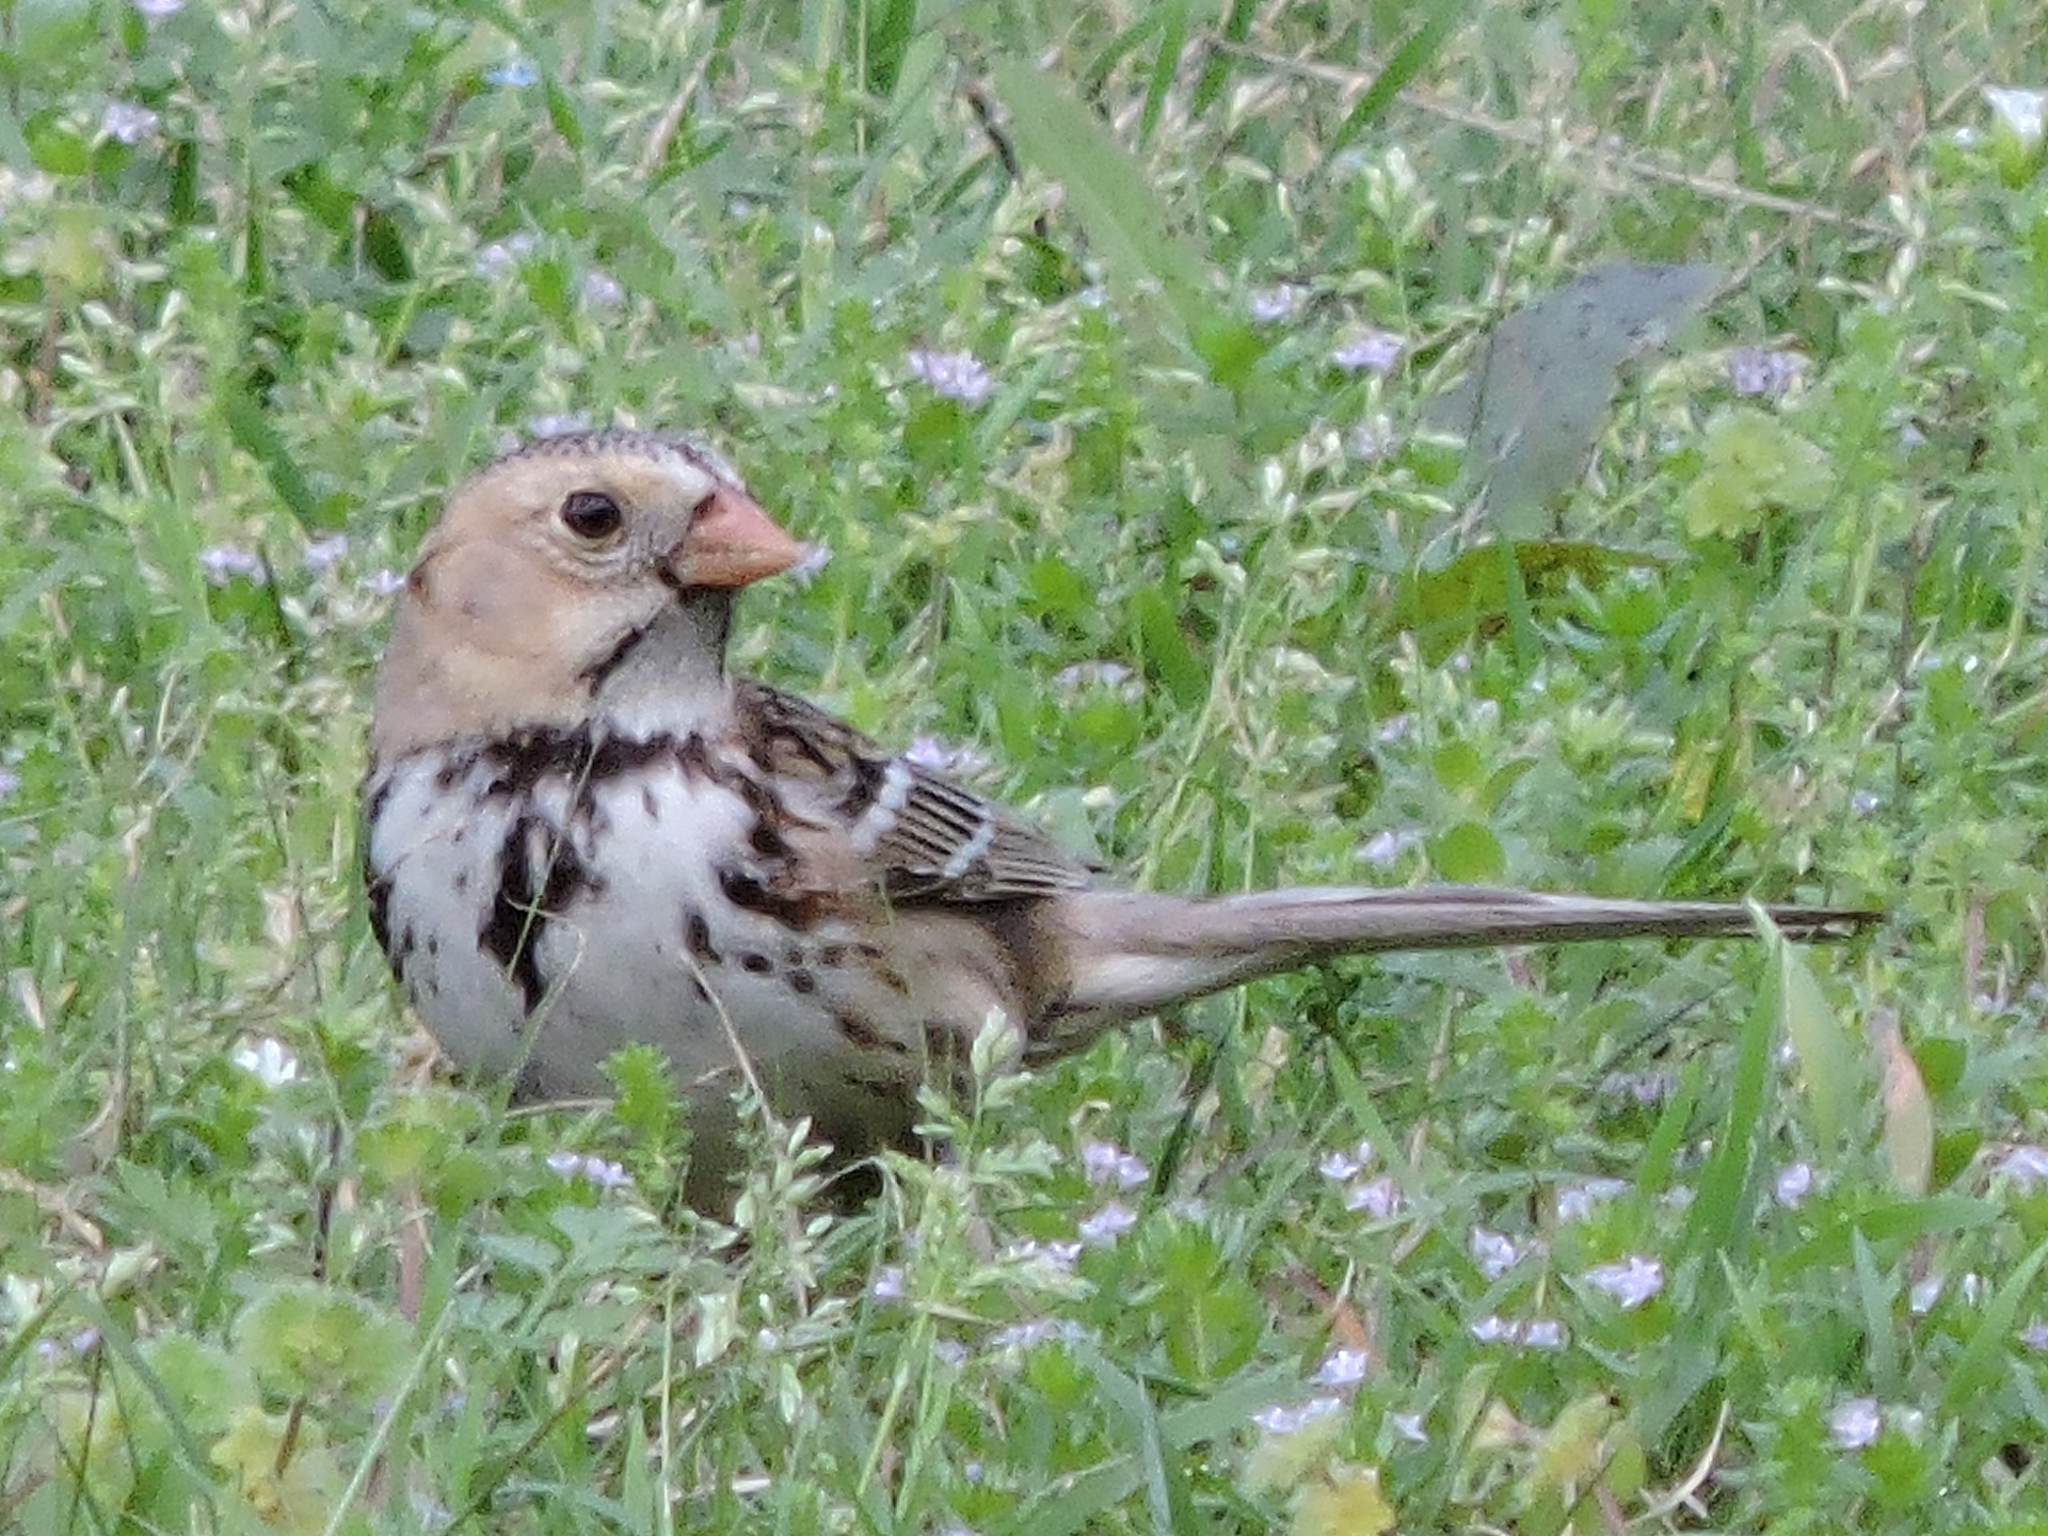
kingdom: Animalia
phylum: Chordata
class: Aves
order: Passeriformes
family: Passerellidae
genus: Zonotrichia
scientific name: Zonotrichia querula
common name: Harris's sparrow
